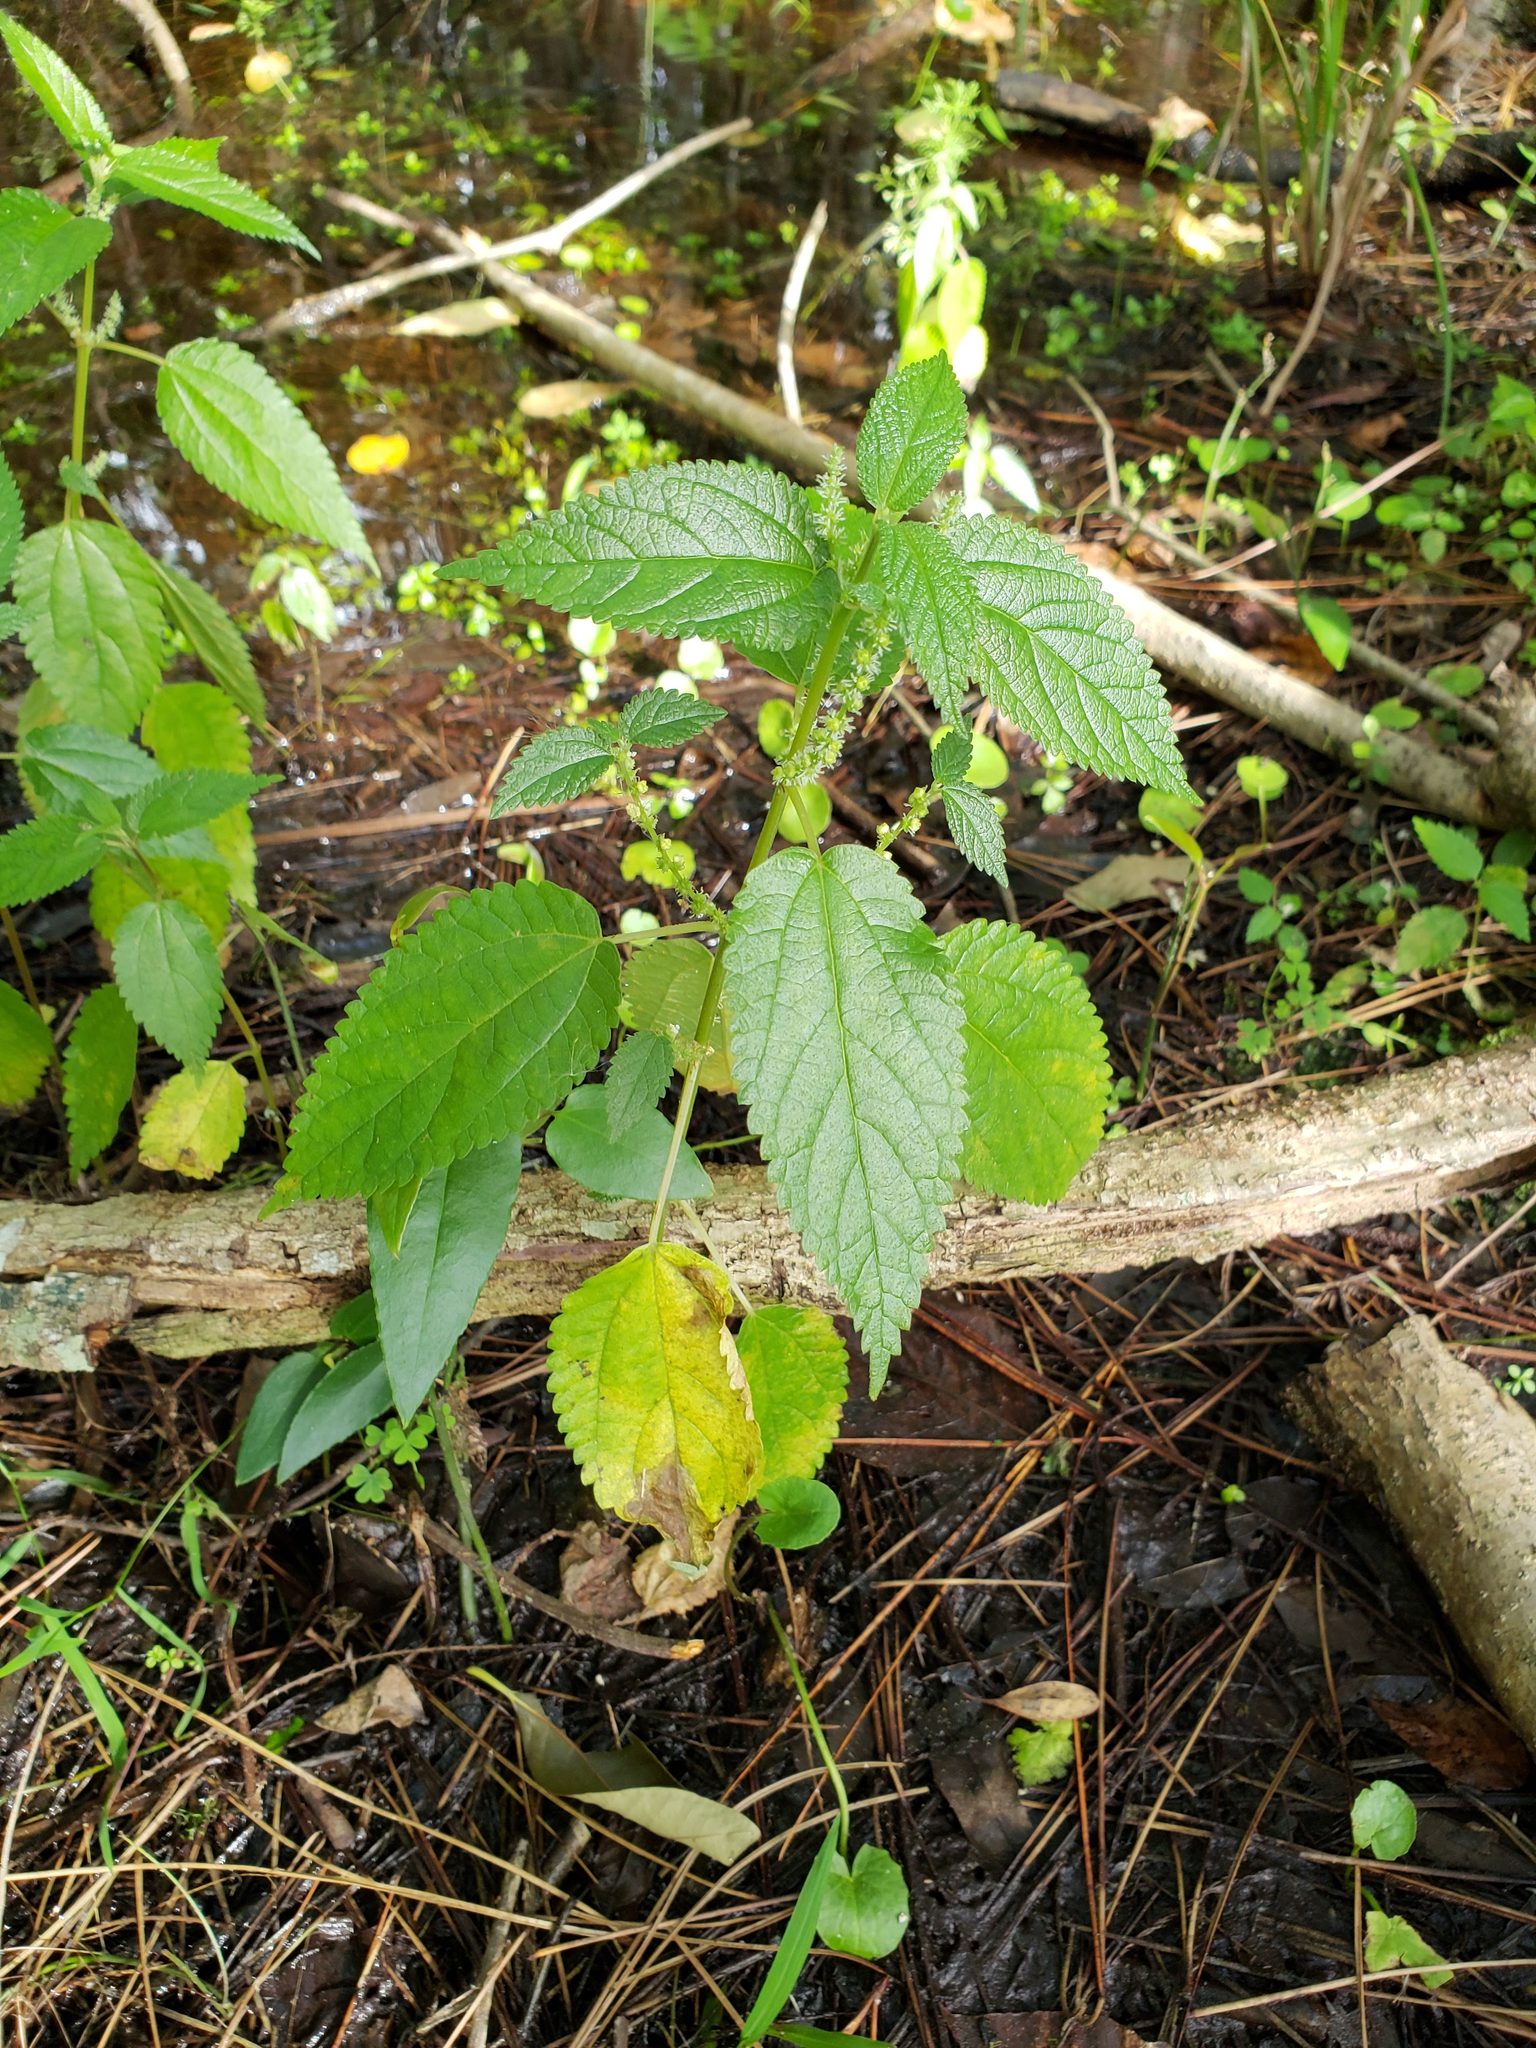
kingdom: Plantae
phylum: Tracheophyta
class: Magnoliopsida
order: Rosales
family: Urticaceae
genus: Boehmeria
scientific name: Boehmeria cylindrica
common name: Bog-hemp
